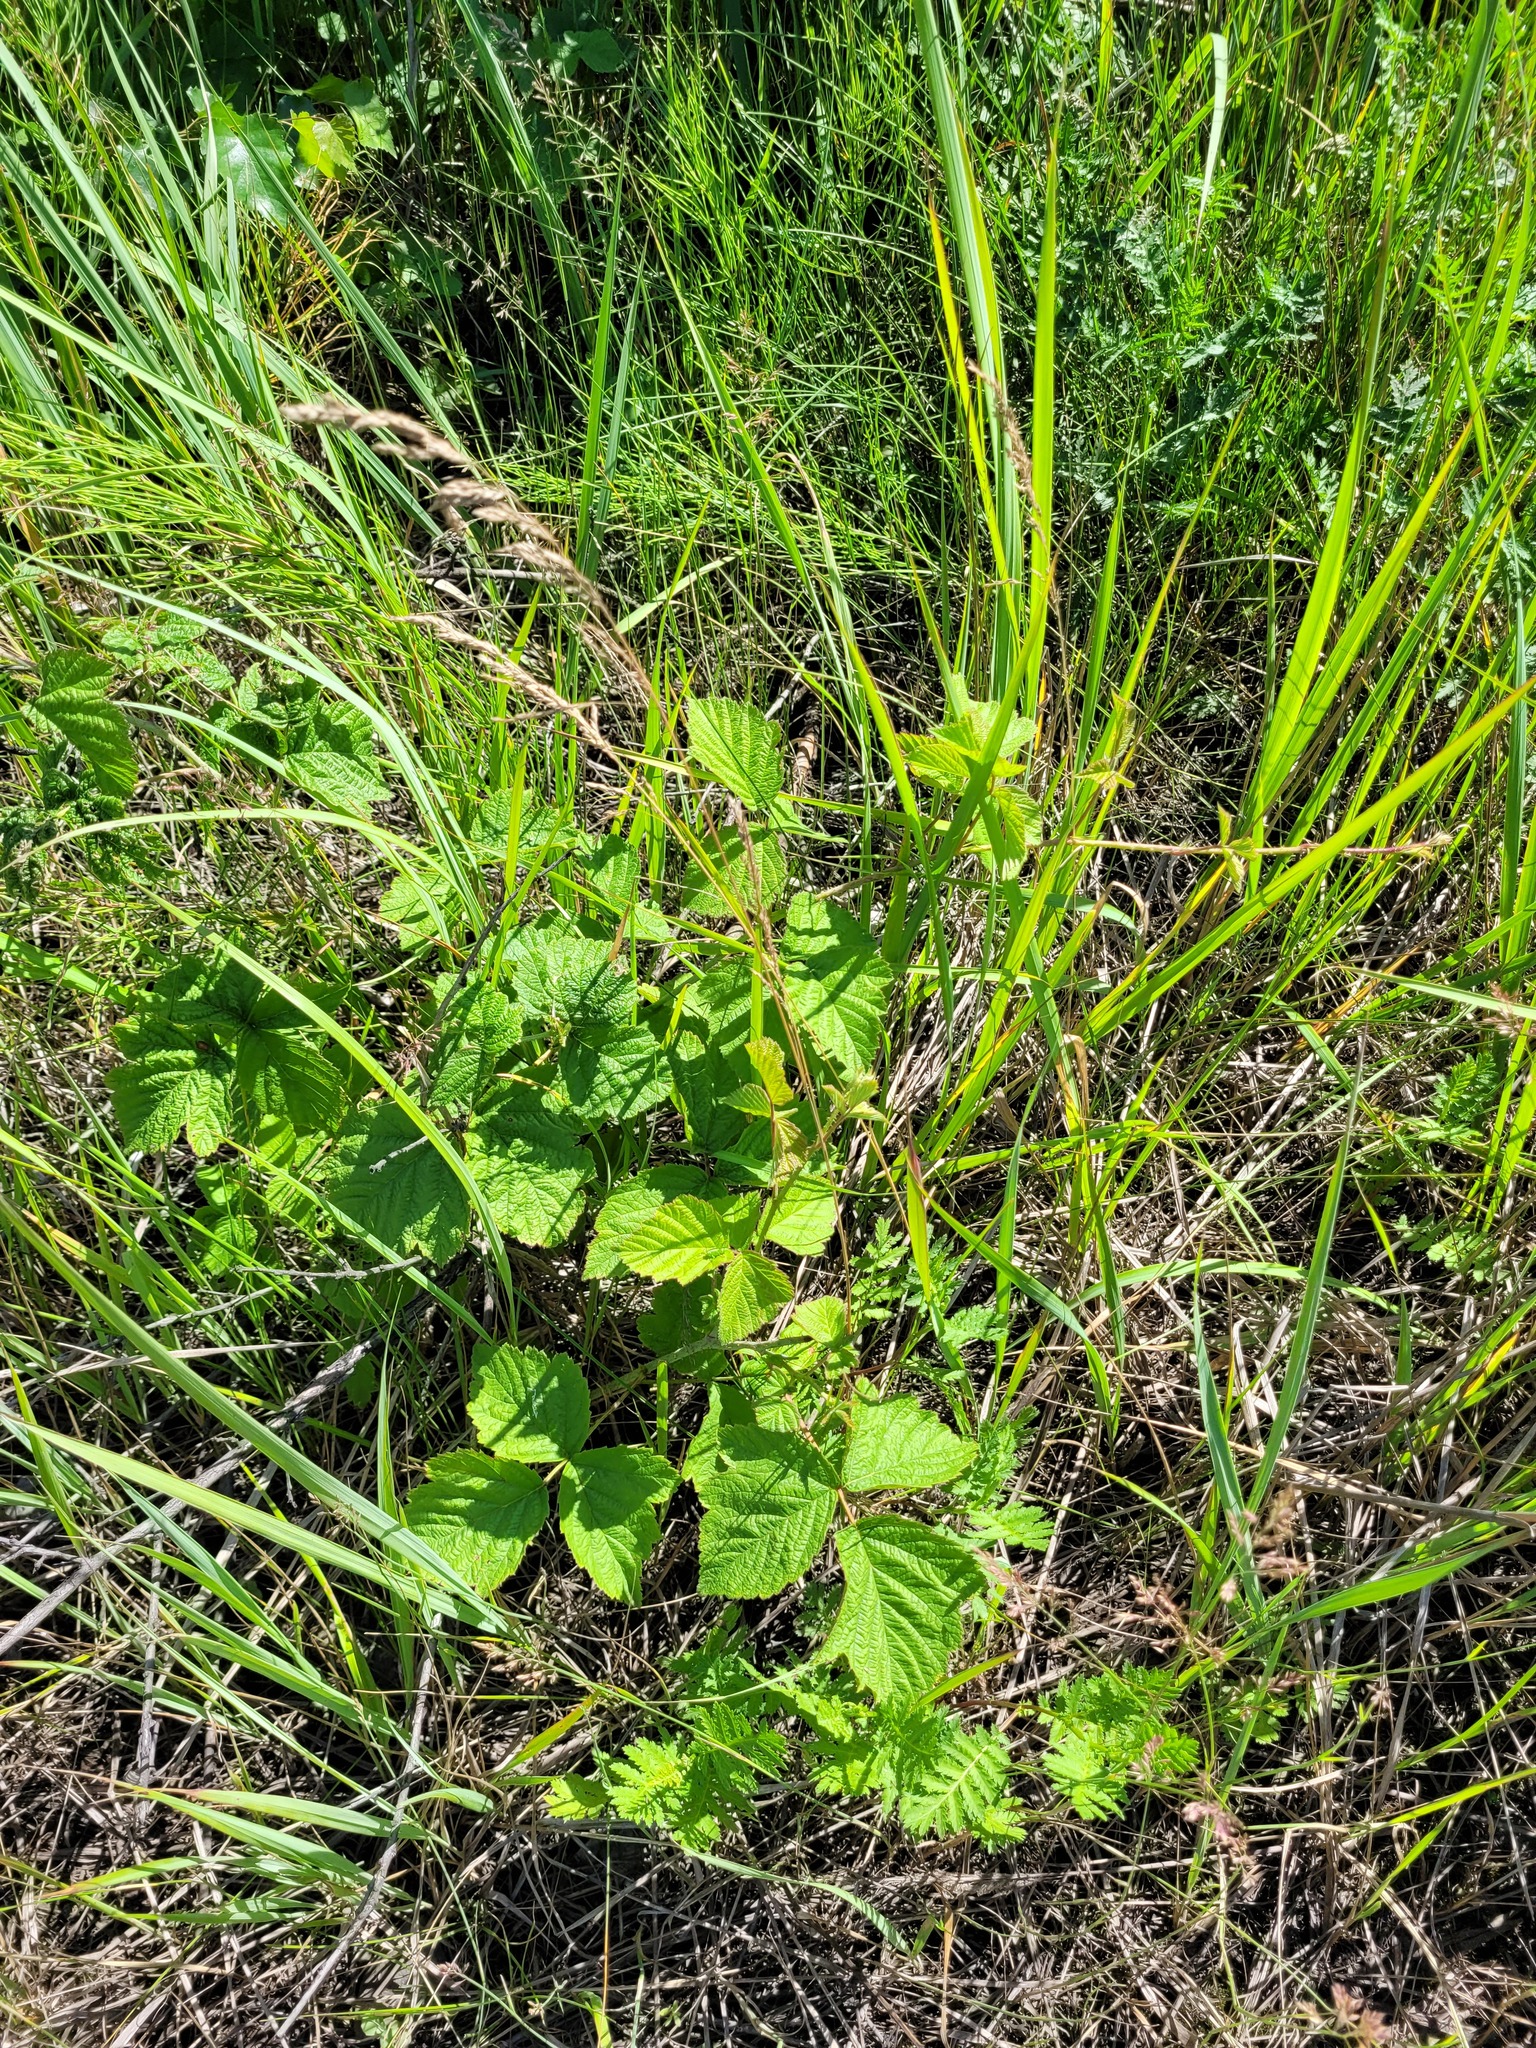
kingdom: Plantae
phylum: Tracheophyta
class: Magnoliopsida
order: Rosales
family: Rosaceae
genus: Rubus
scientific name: Rubus caesius
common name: Dewberry
